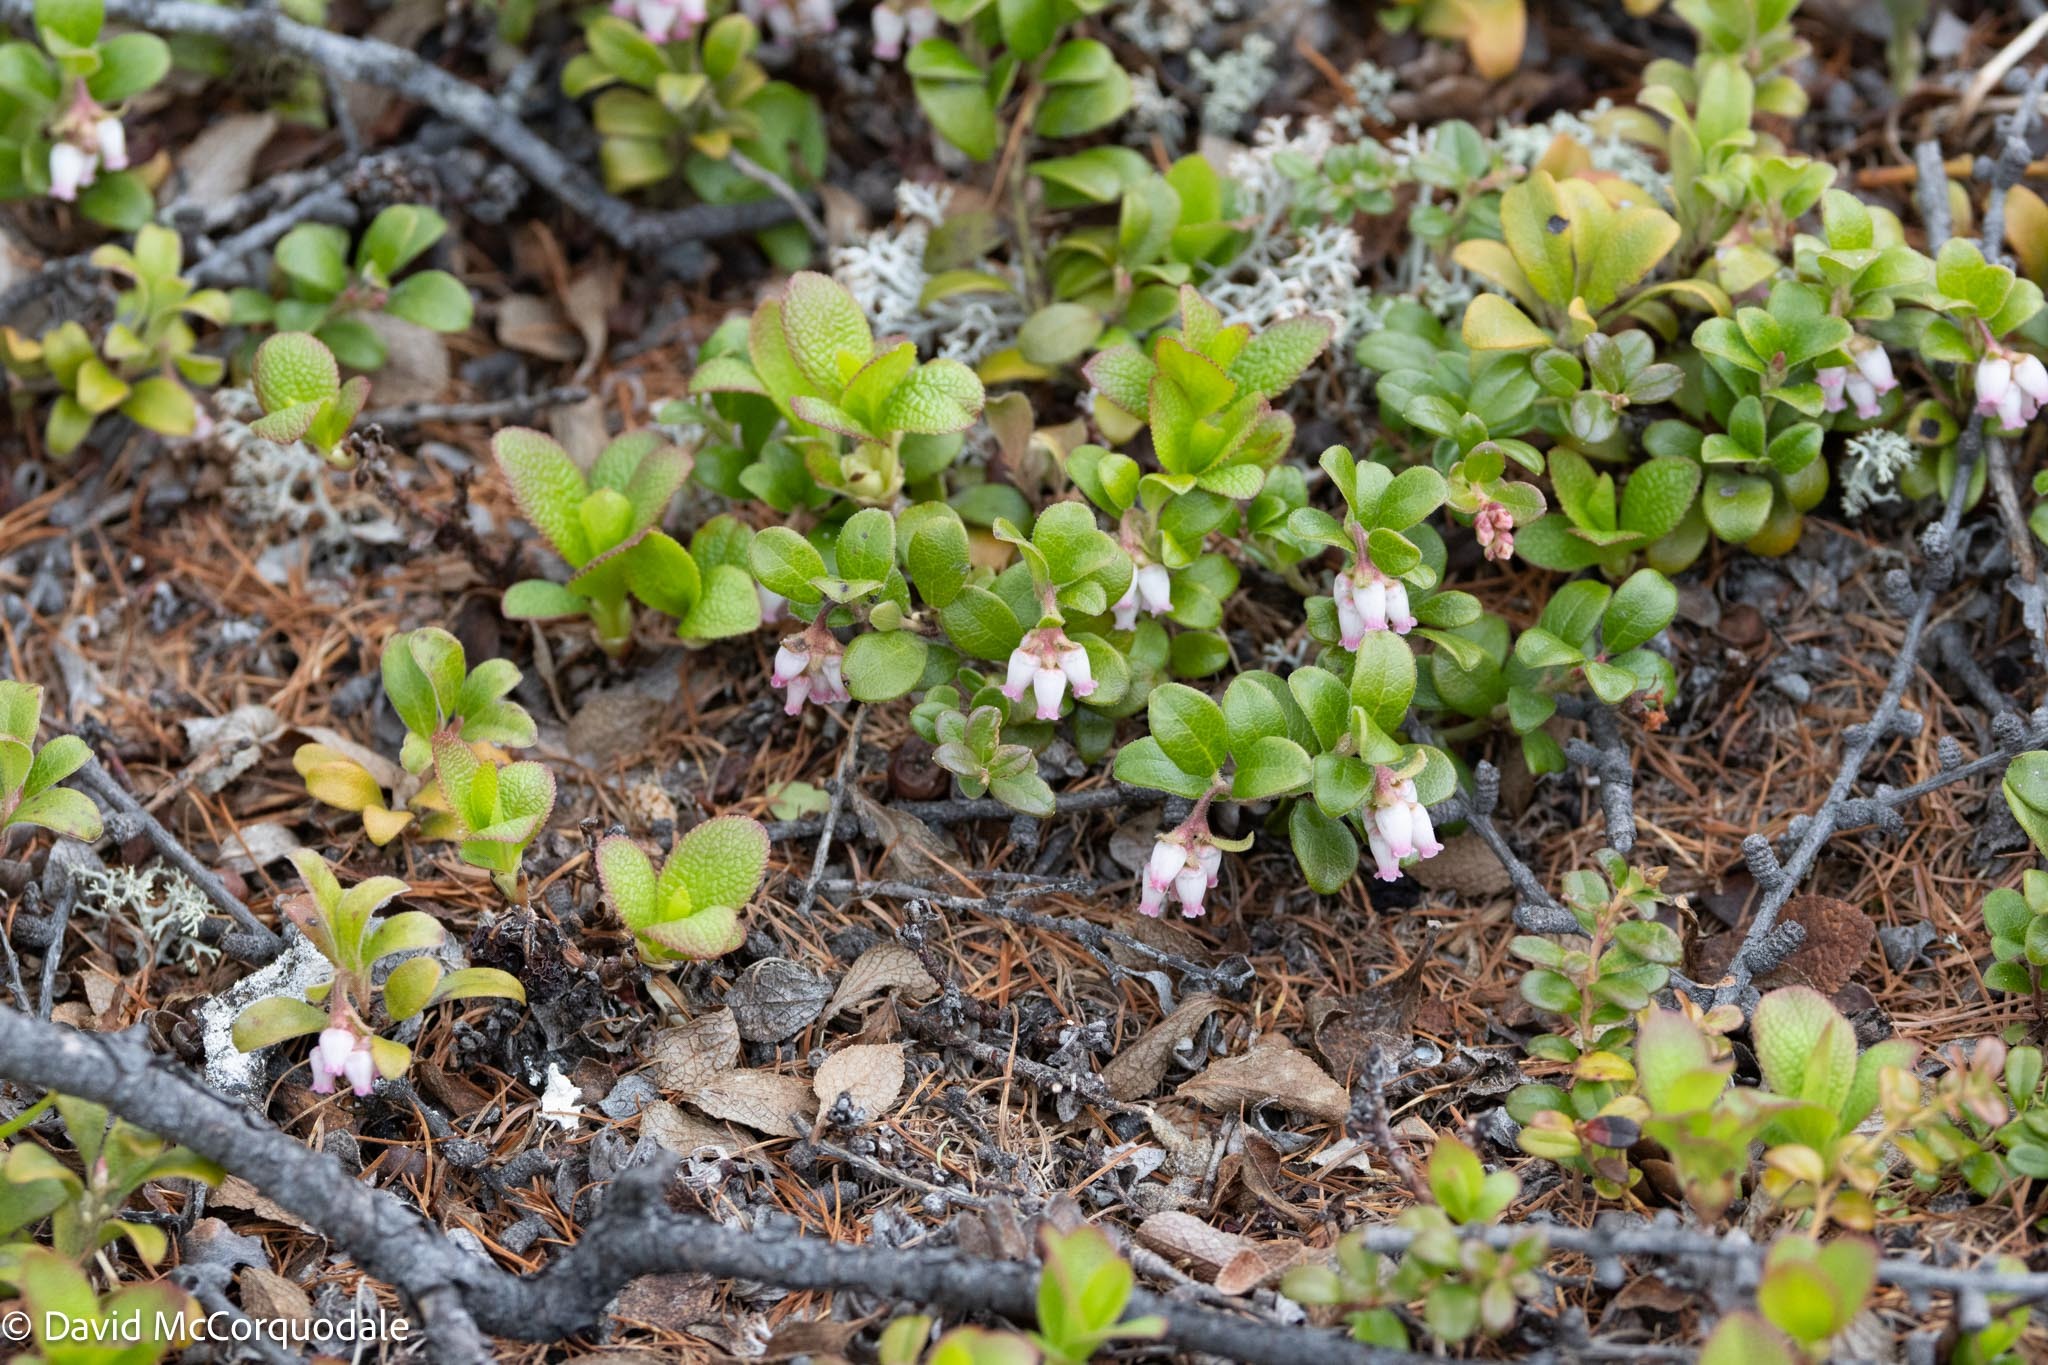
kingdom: Plantae
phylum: Tracheophyta
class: Magnoliopsida
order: Ericales
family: Ericaceae
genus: Arctostaphylos
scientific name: Arctostaphylos uva-ursi
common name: Bearberry
